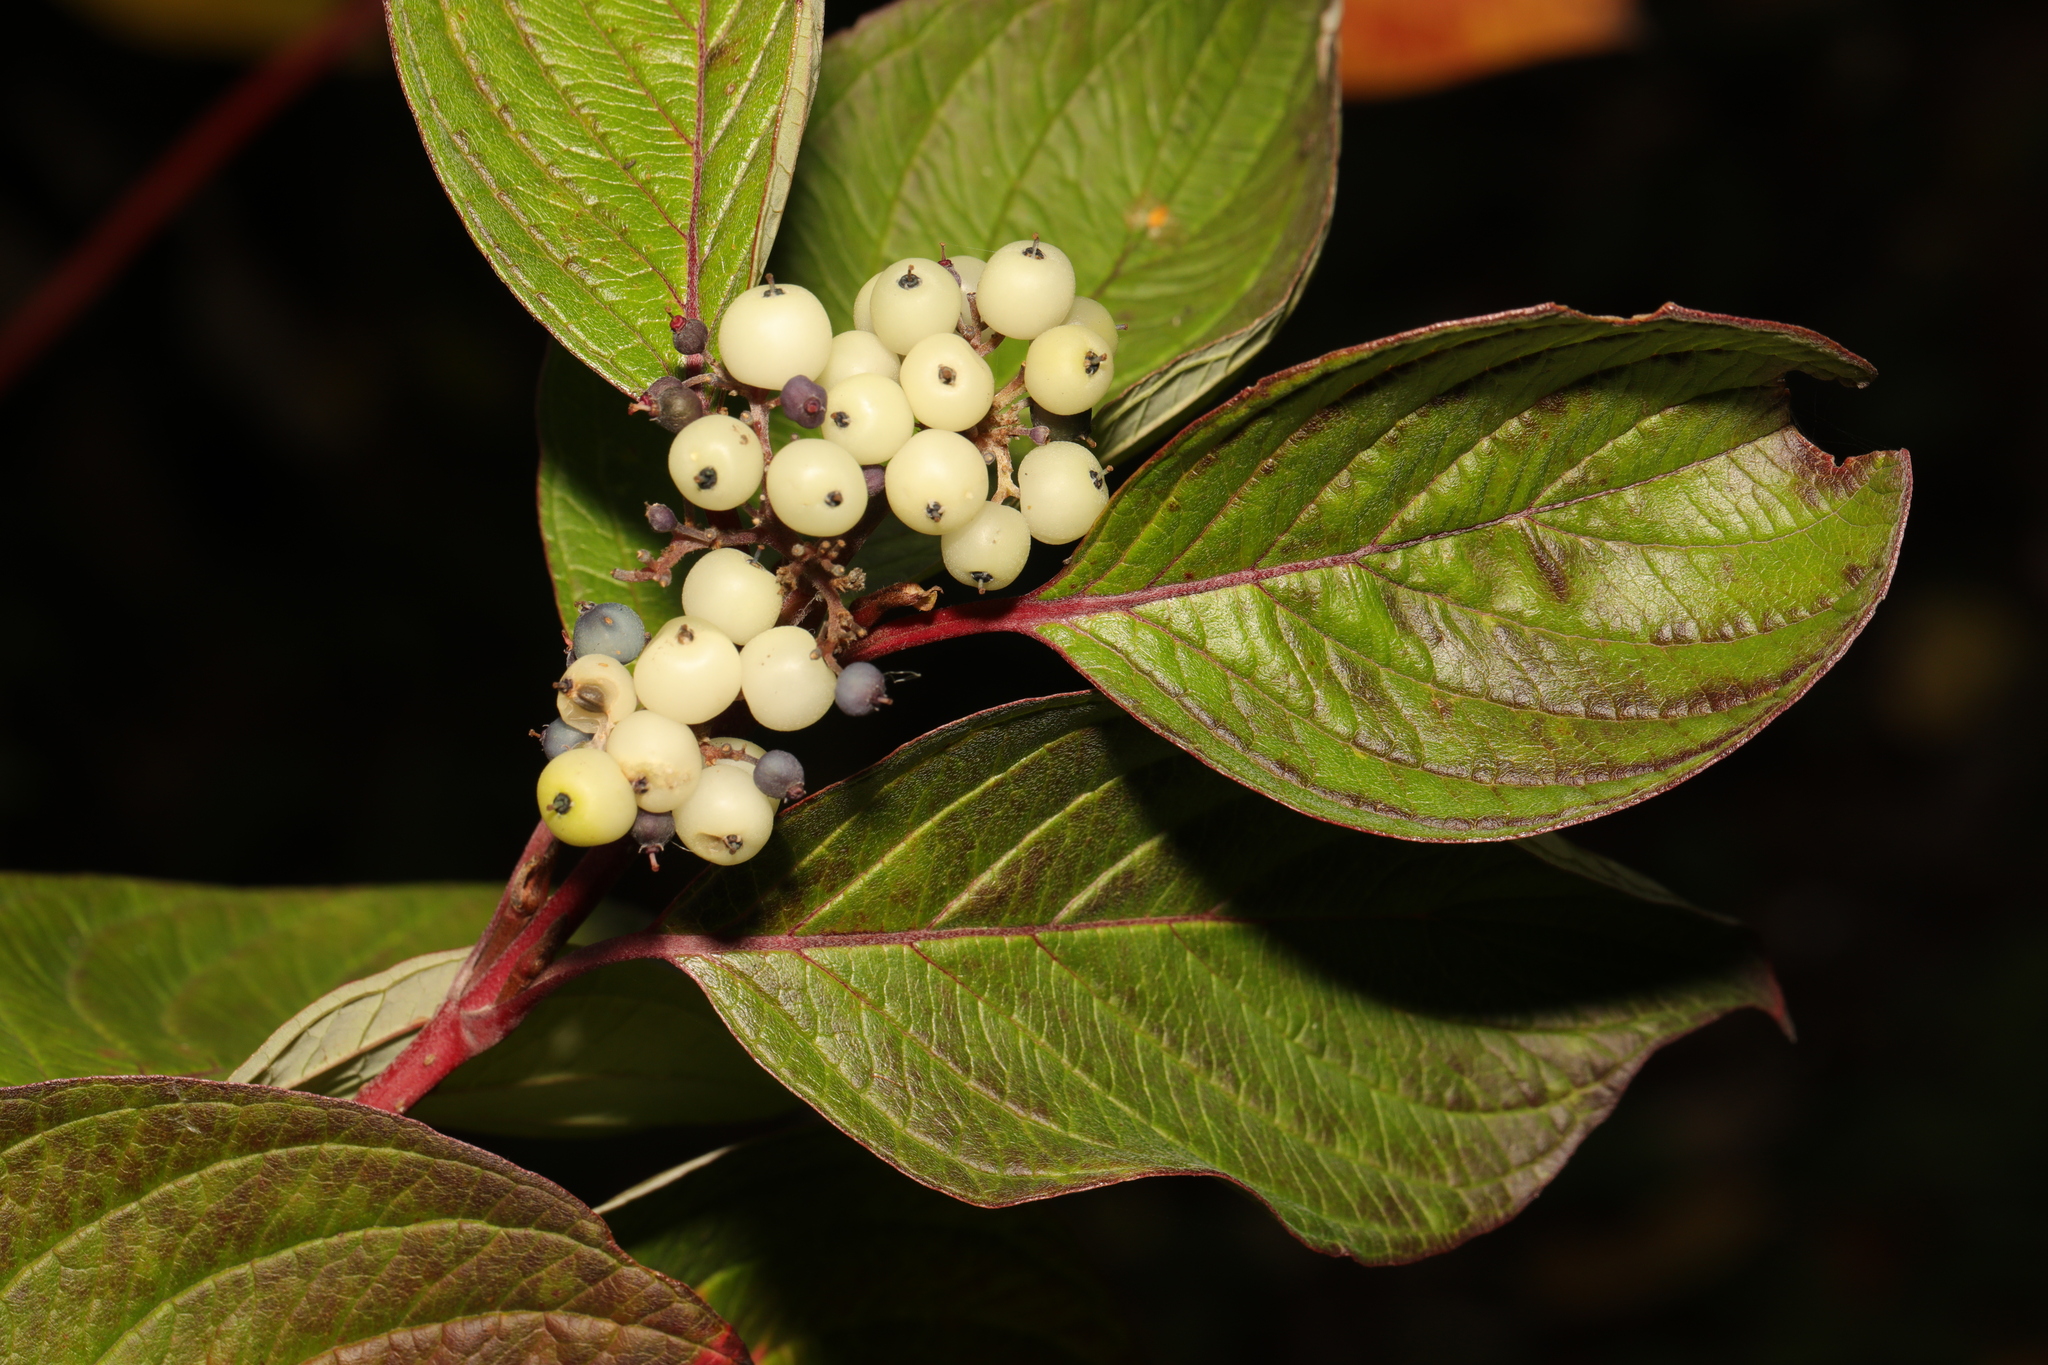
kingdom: Plantae
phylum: Tracheophyta
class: Magnoliopsida
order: Cornales
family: Cornaceae
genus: Cornus
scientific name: Cornus sericea
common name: Red-osier dogwood
